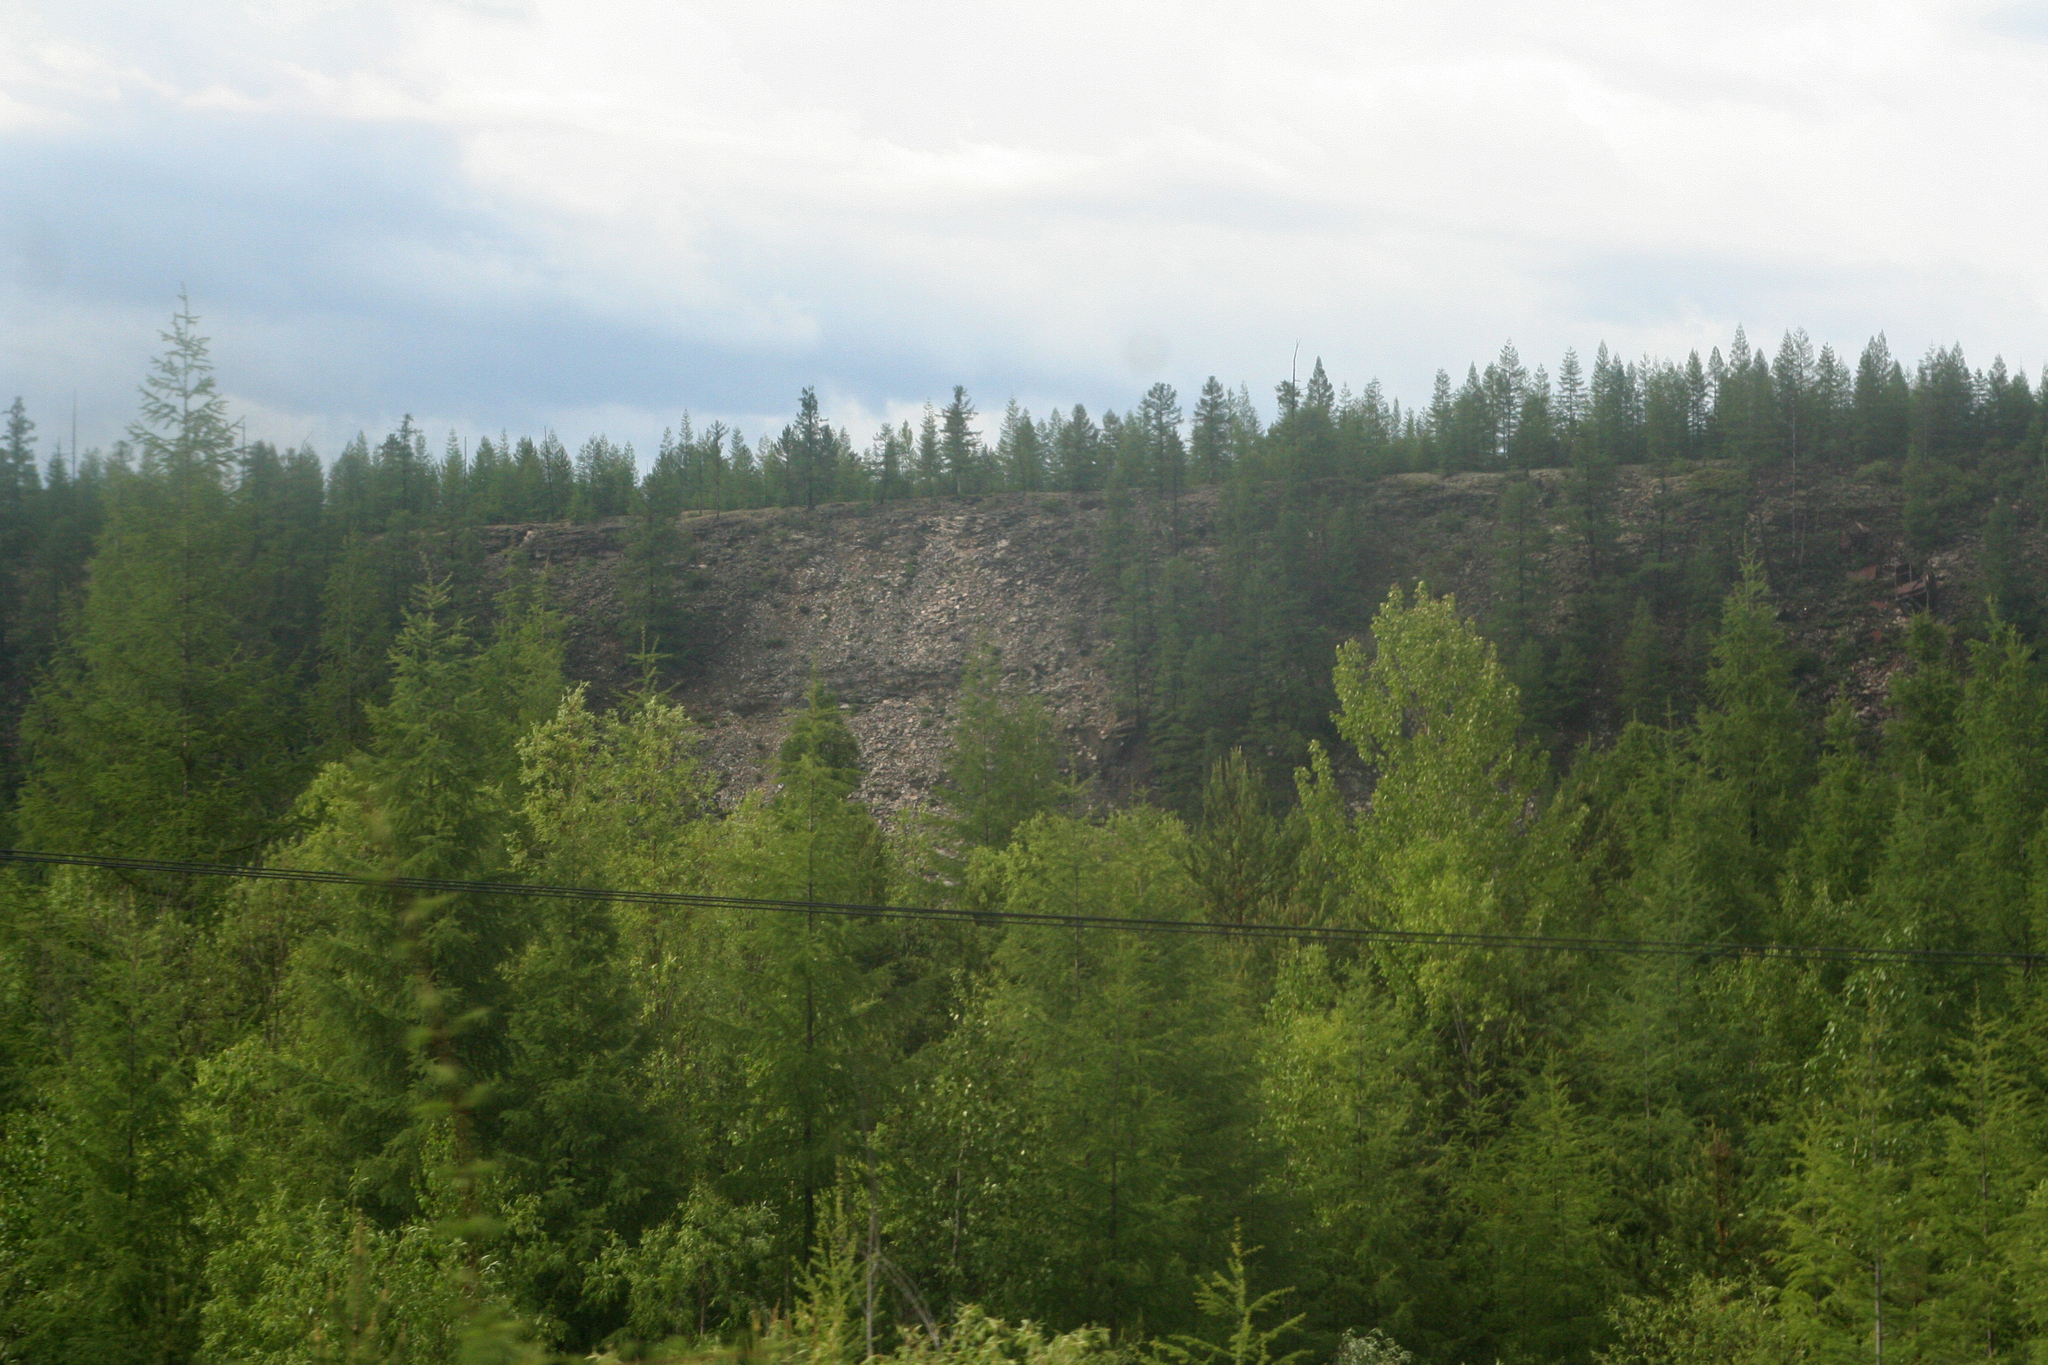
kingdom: Plantae
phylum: Tracheophyta
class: Pinopsida
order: Pinales
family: Pinaceae
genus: Larix
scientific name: Larix gmelinii
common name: Dahurian larch
